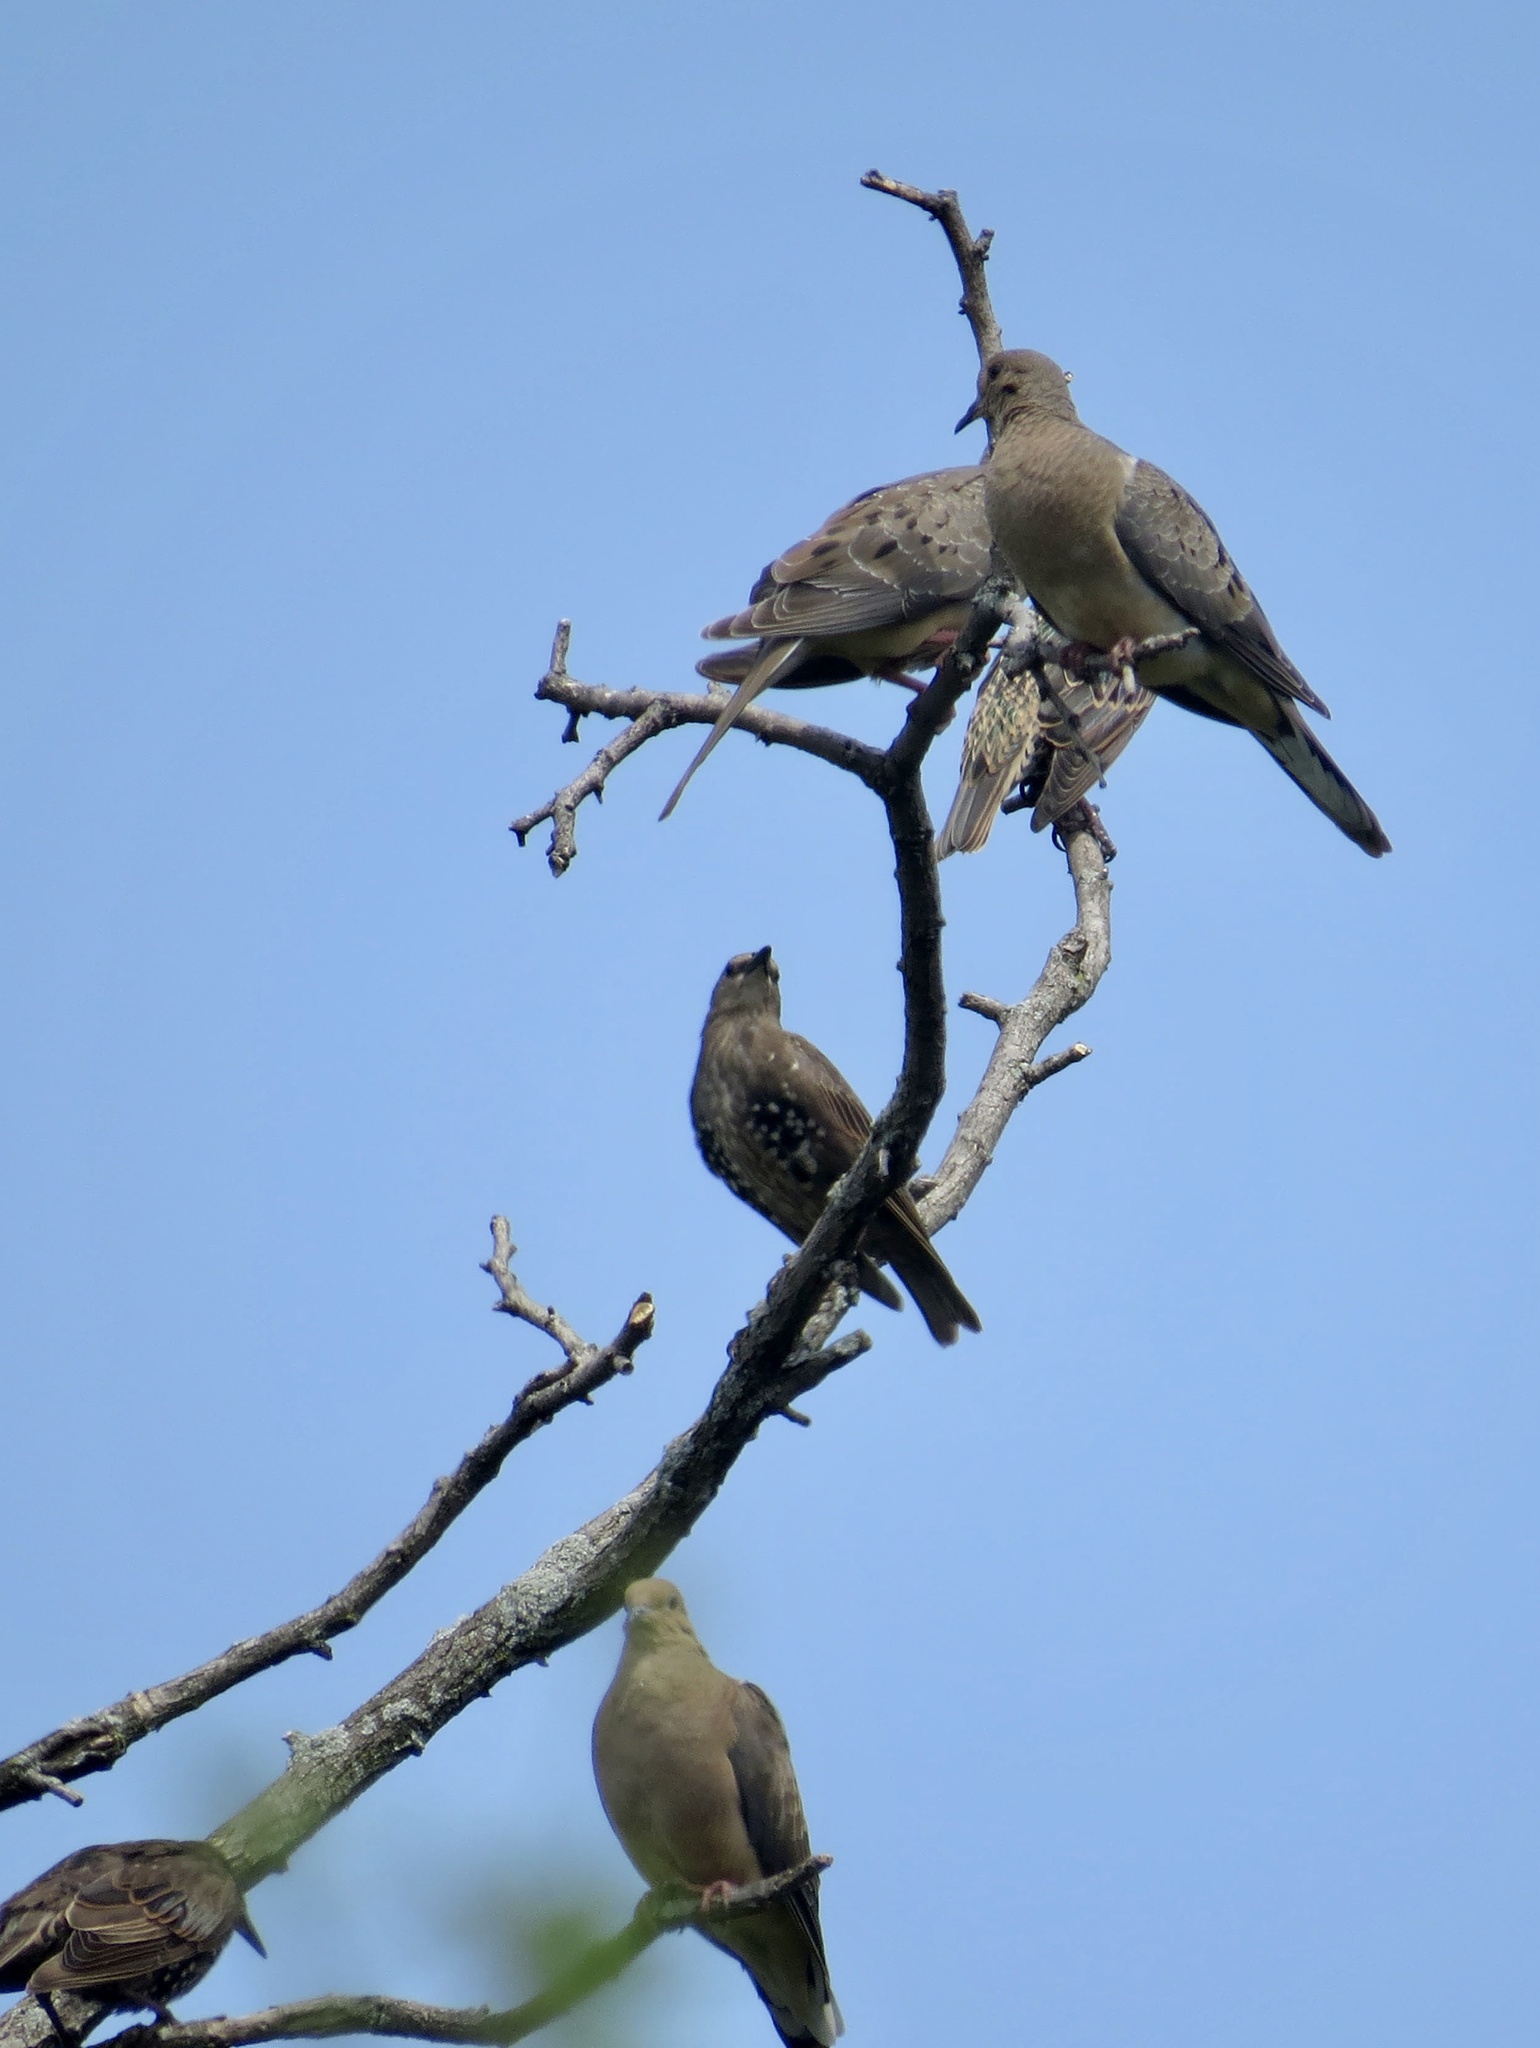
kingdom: Animalia
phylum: Chordata
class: Aves
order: Columbiformes
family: Columbidae
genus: Zenaida
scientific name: Zenaida macroura
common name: Mourning dove
